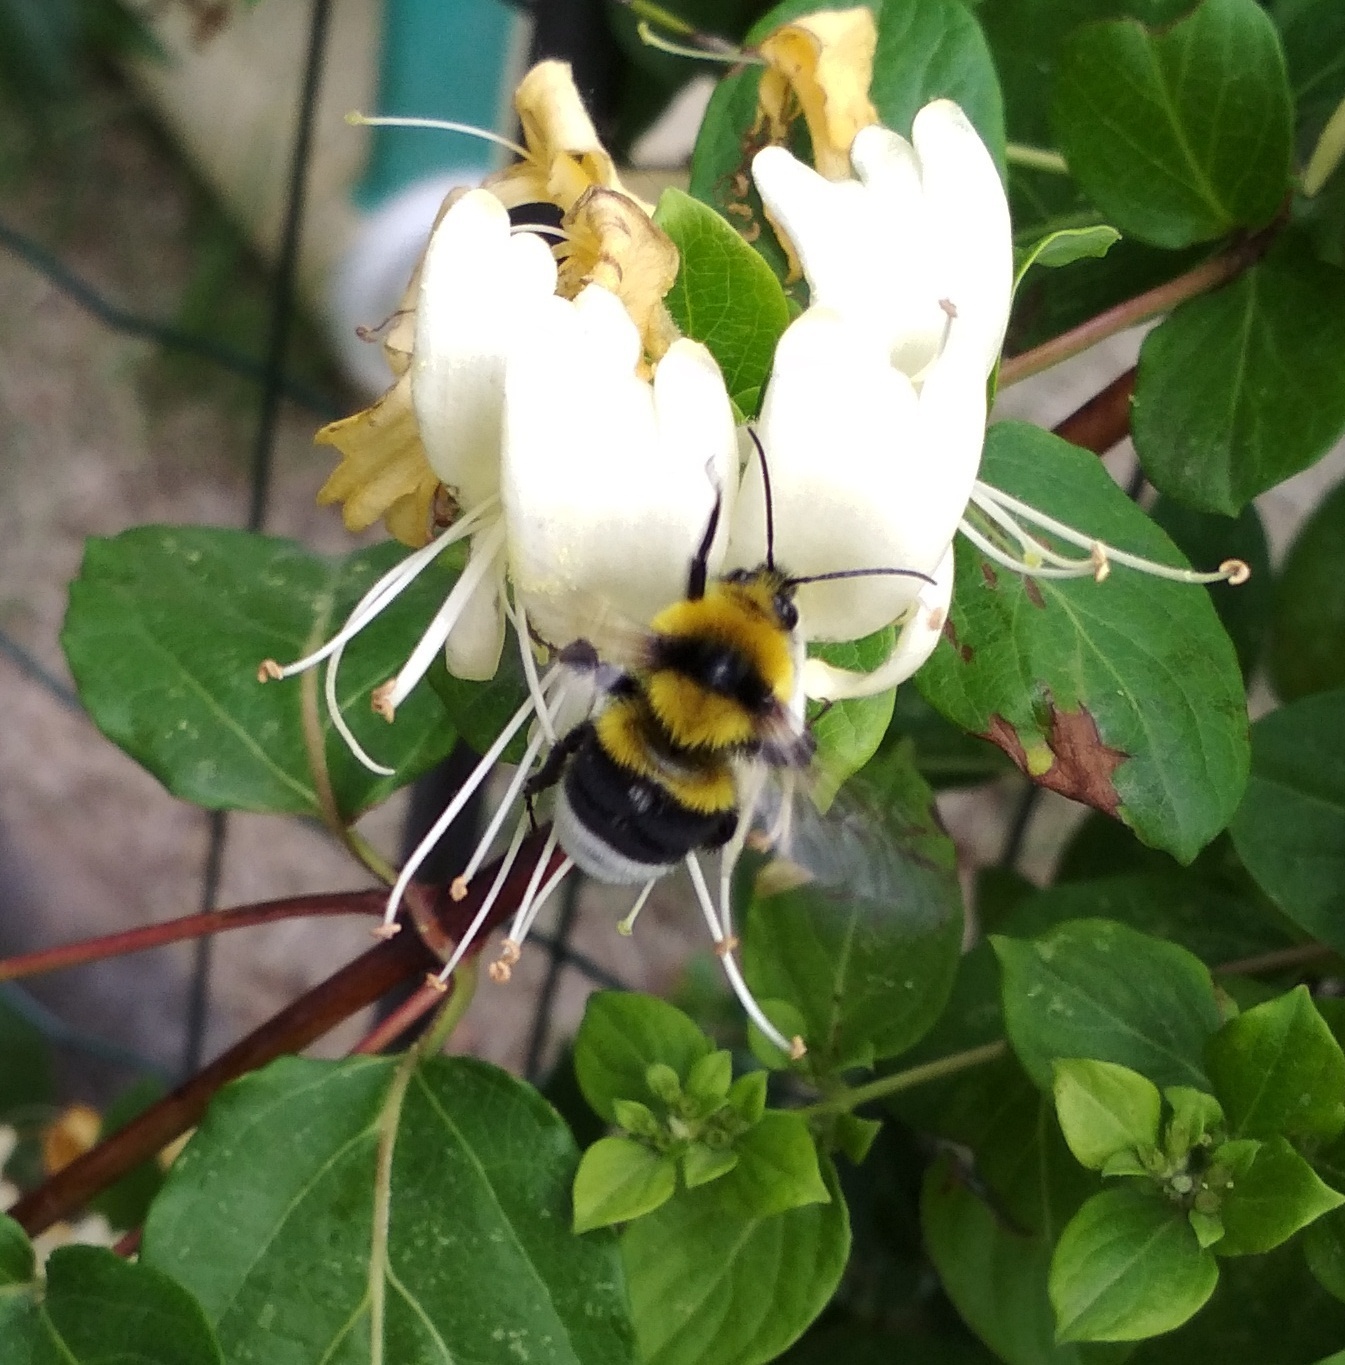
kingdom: Animalia
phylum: Arthropoda
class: Insecta
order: Hymenoptera
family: Apidae
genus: Bombus
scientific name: Bombus argillaceus
